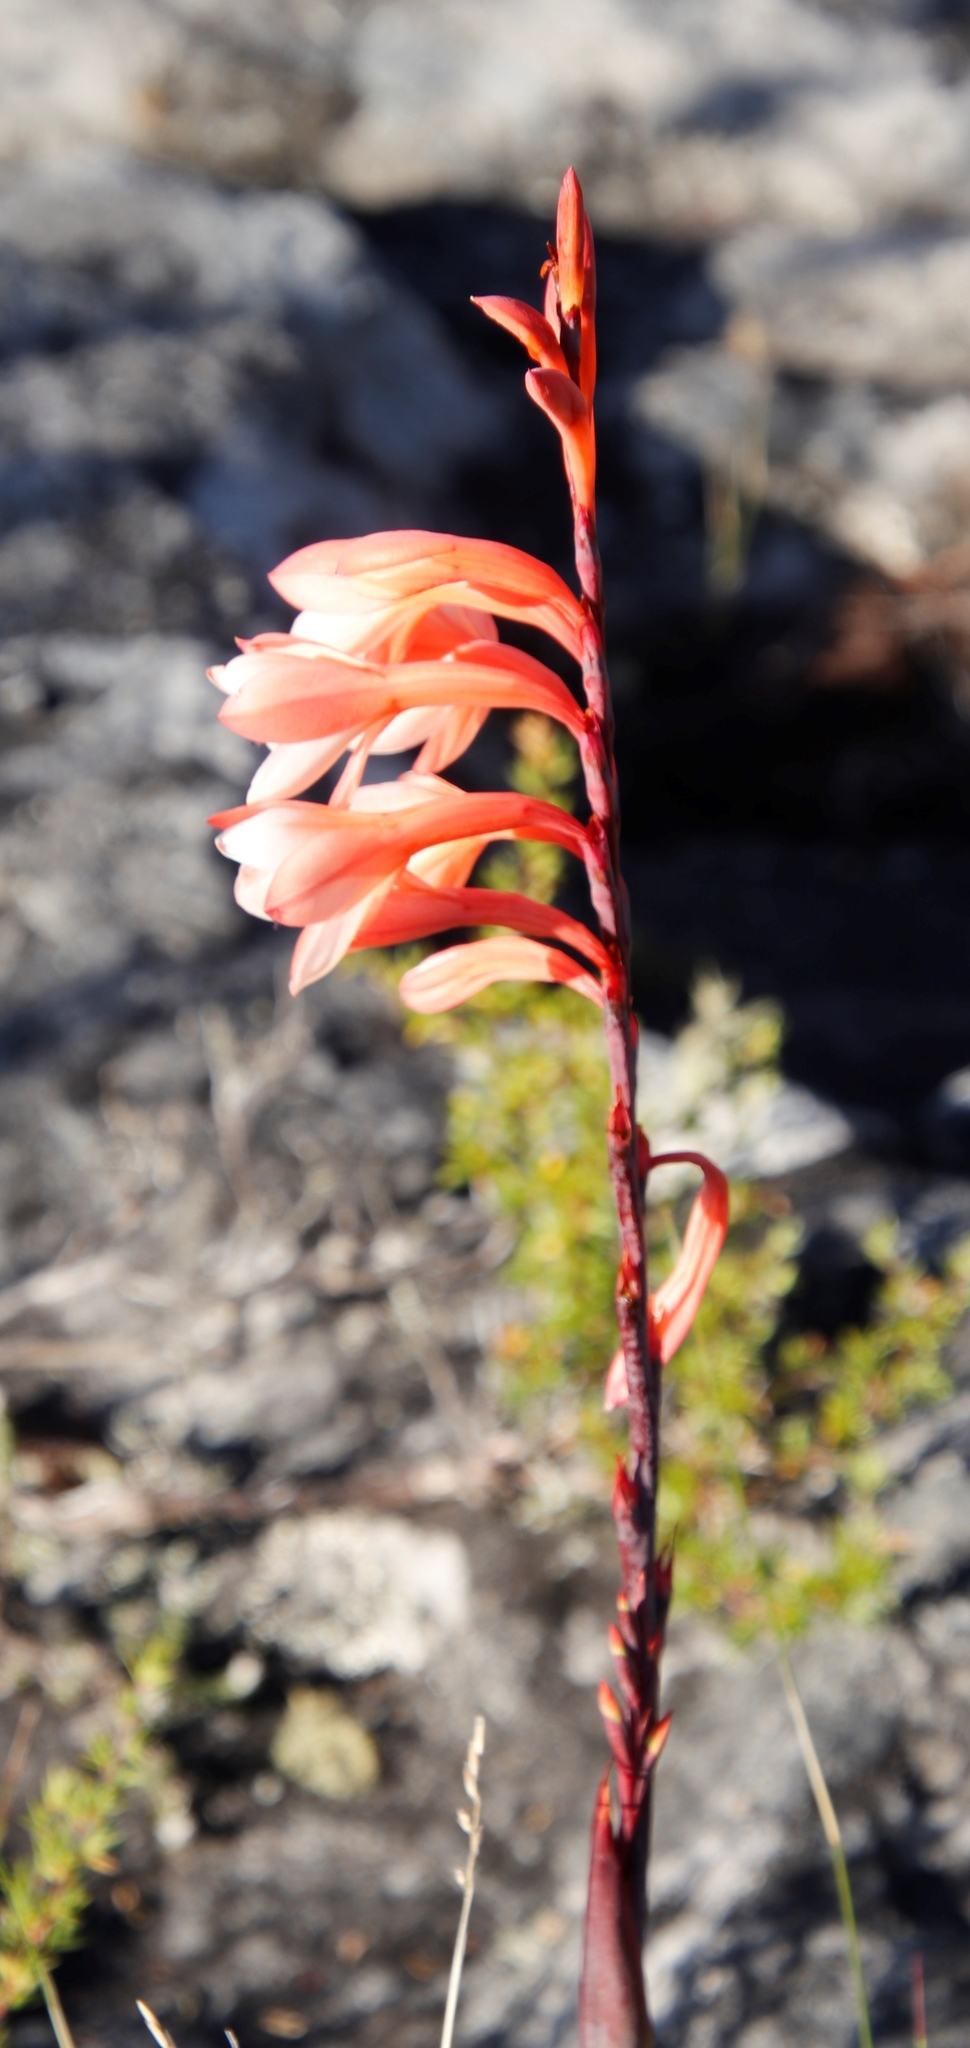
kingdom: Plantae
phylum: Tracheophyta
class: Liliopsida
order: Asparagales
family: Iridaceae
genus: Watsonia
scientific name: Watsonia tabularis
